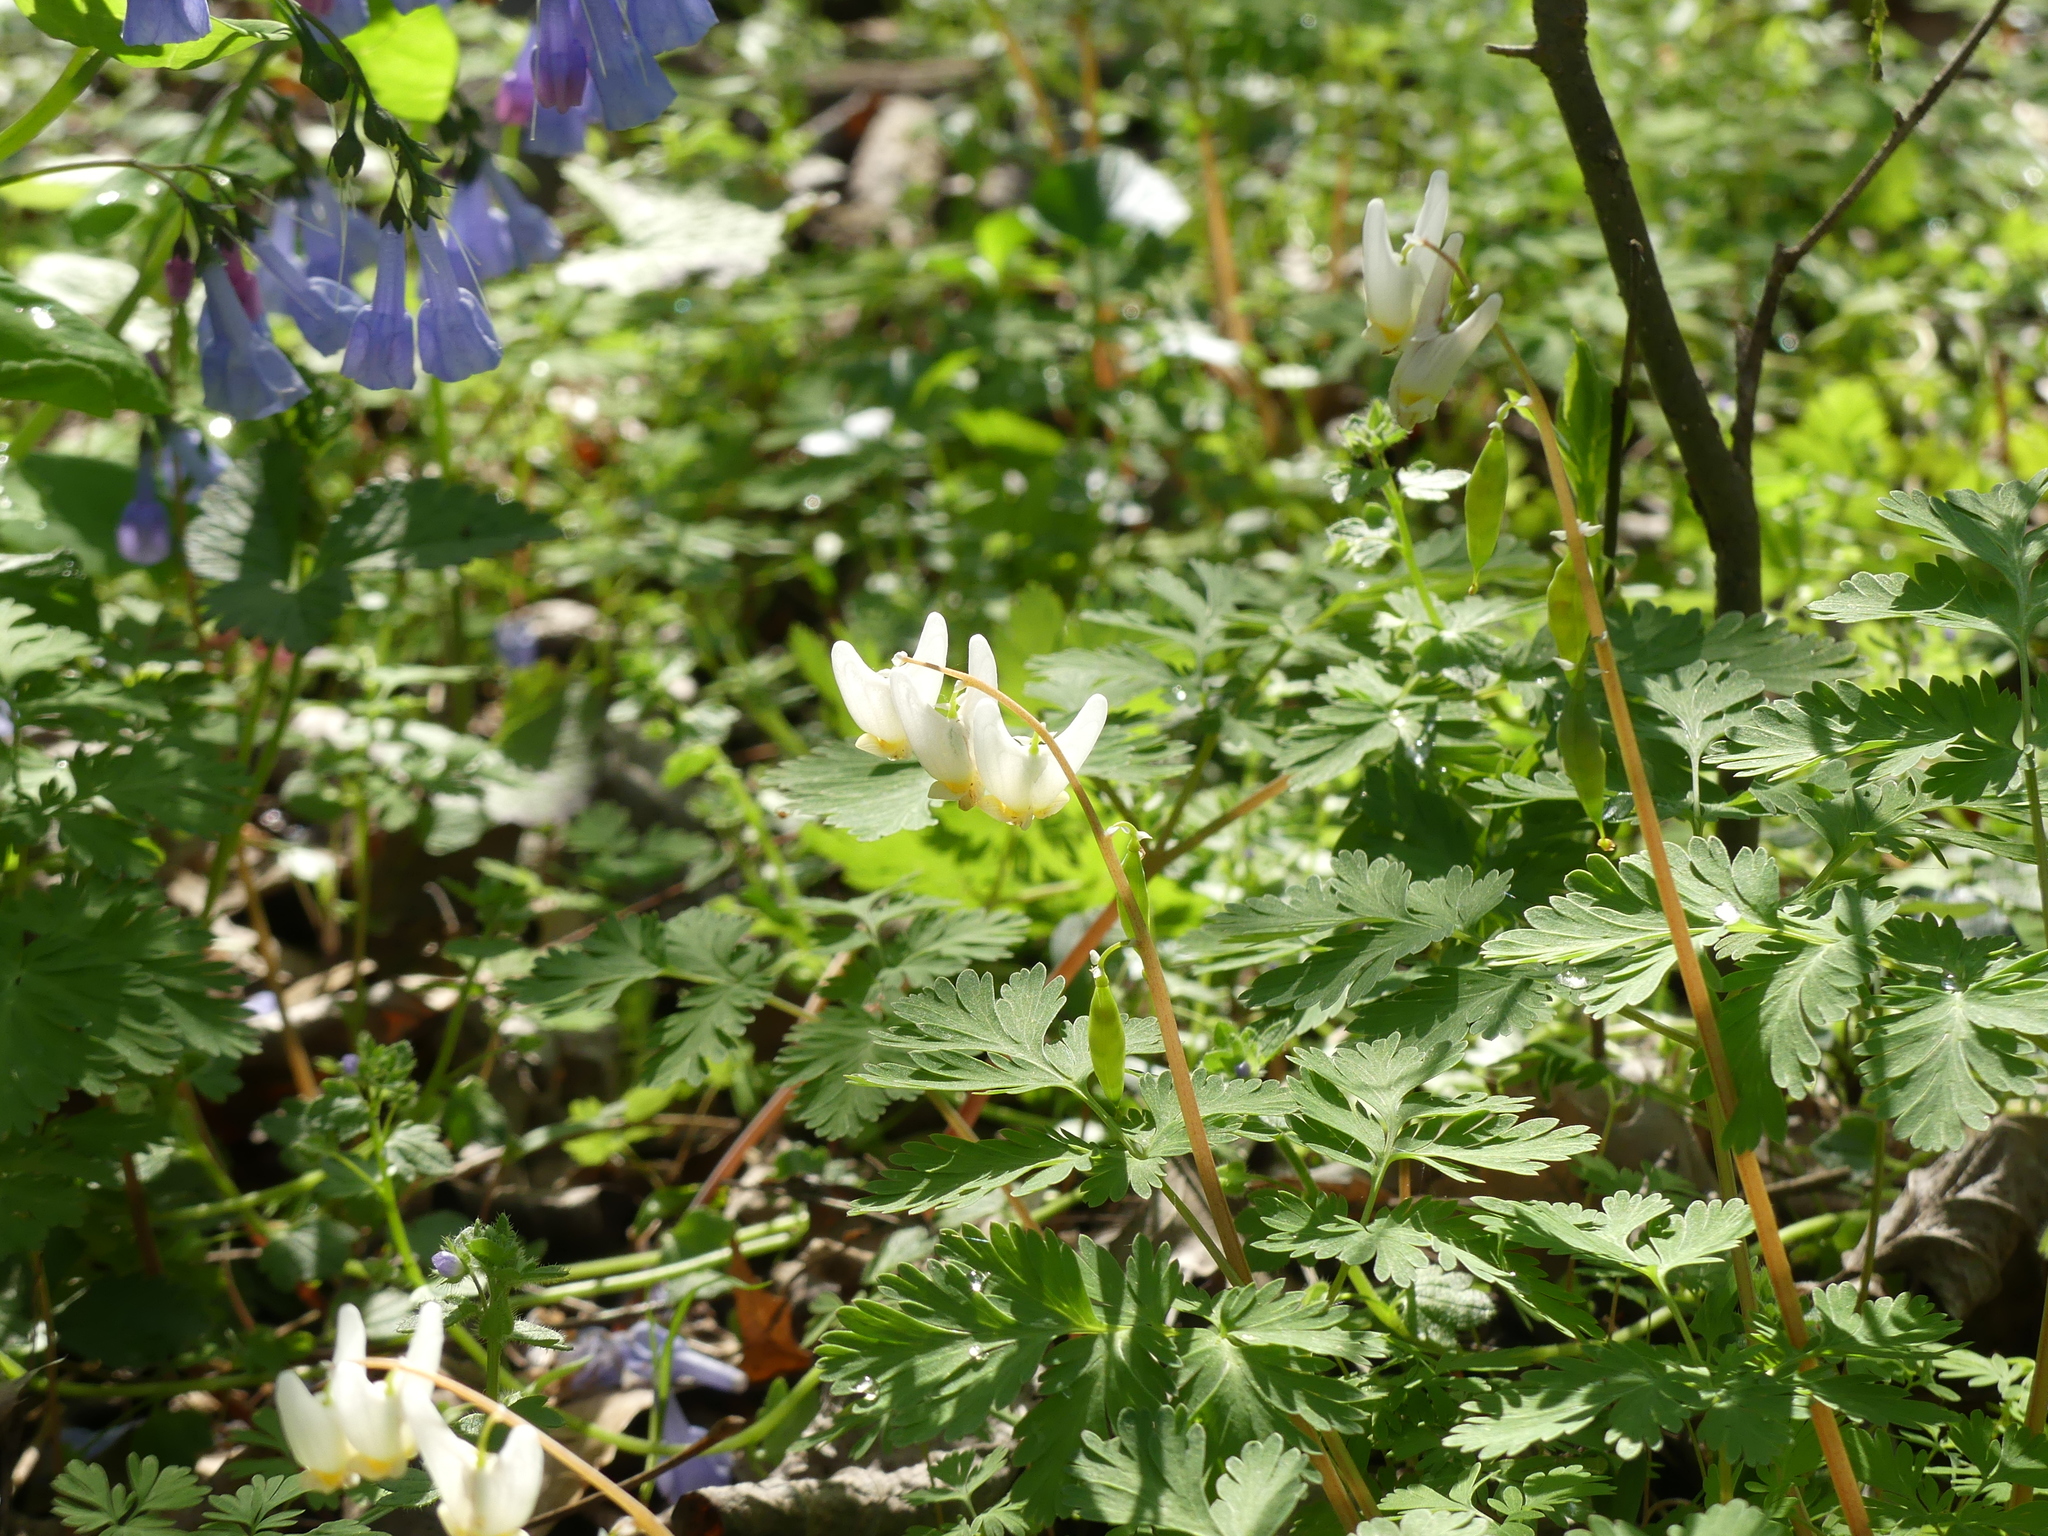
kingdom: Plantae
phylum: Tracheophyta
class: Magnoliopsida
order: Ranunculales
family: Papaveraceae
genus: Dicentra
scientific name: Dicentra cucullaria
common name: Dutchman's breeches
